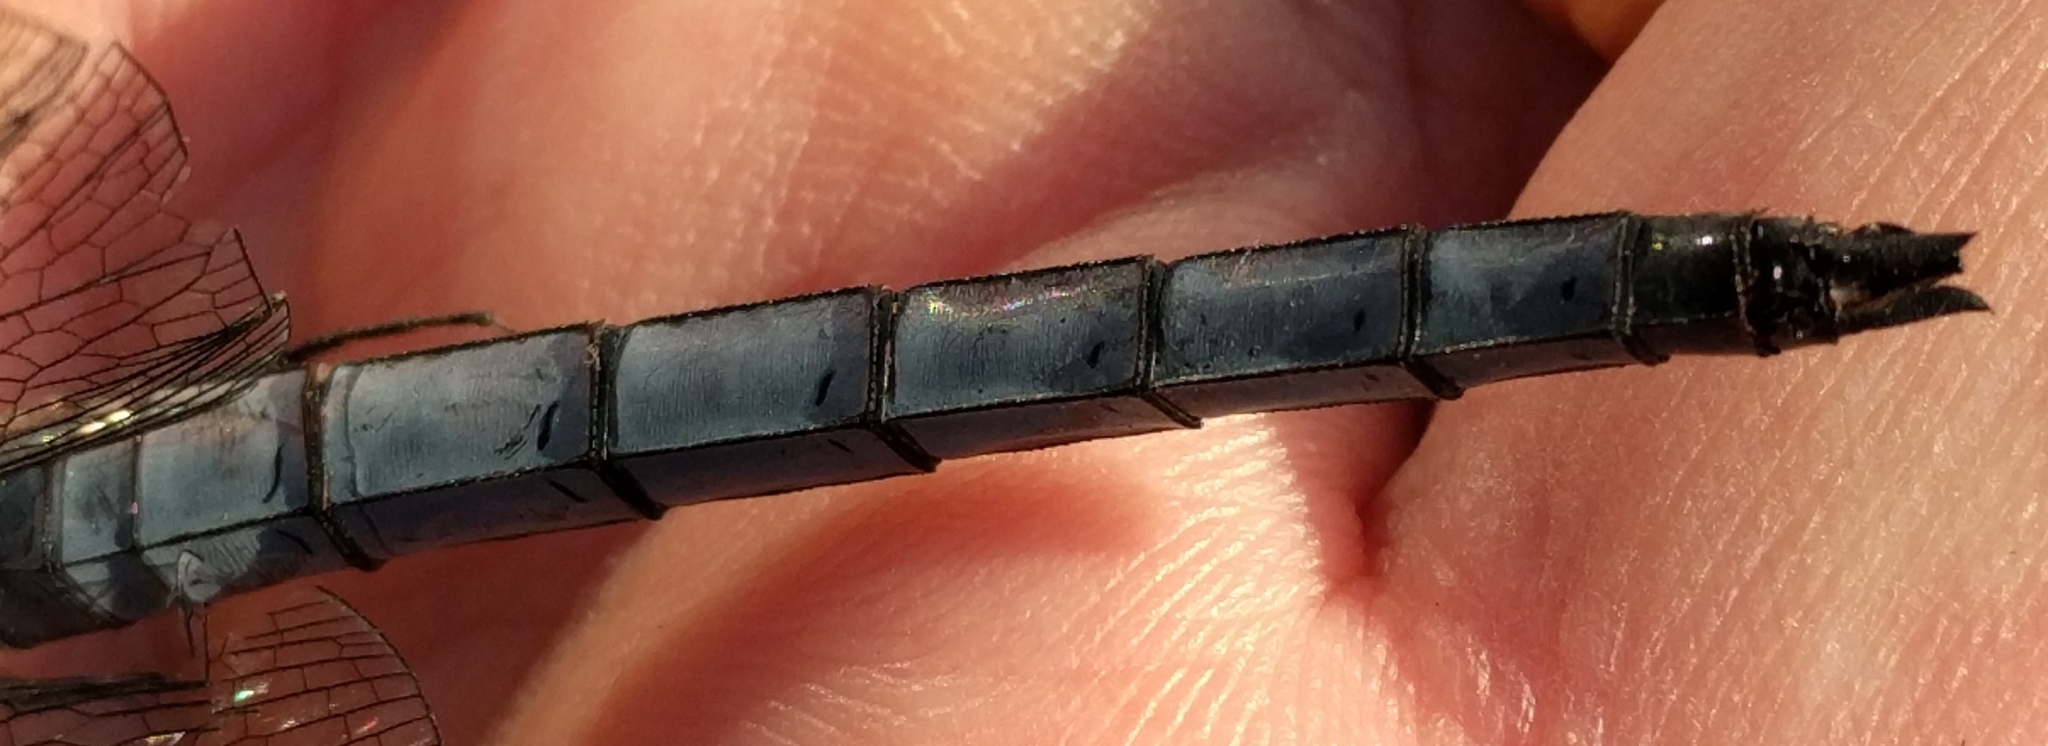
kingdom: Animalia
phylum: Arthropoda
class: Insecta
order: Odonata
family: Libellulidae
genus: Libellula
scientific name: Libellula vibrans
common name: Great blue skimmer
